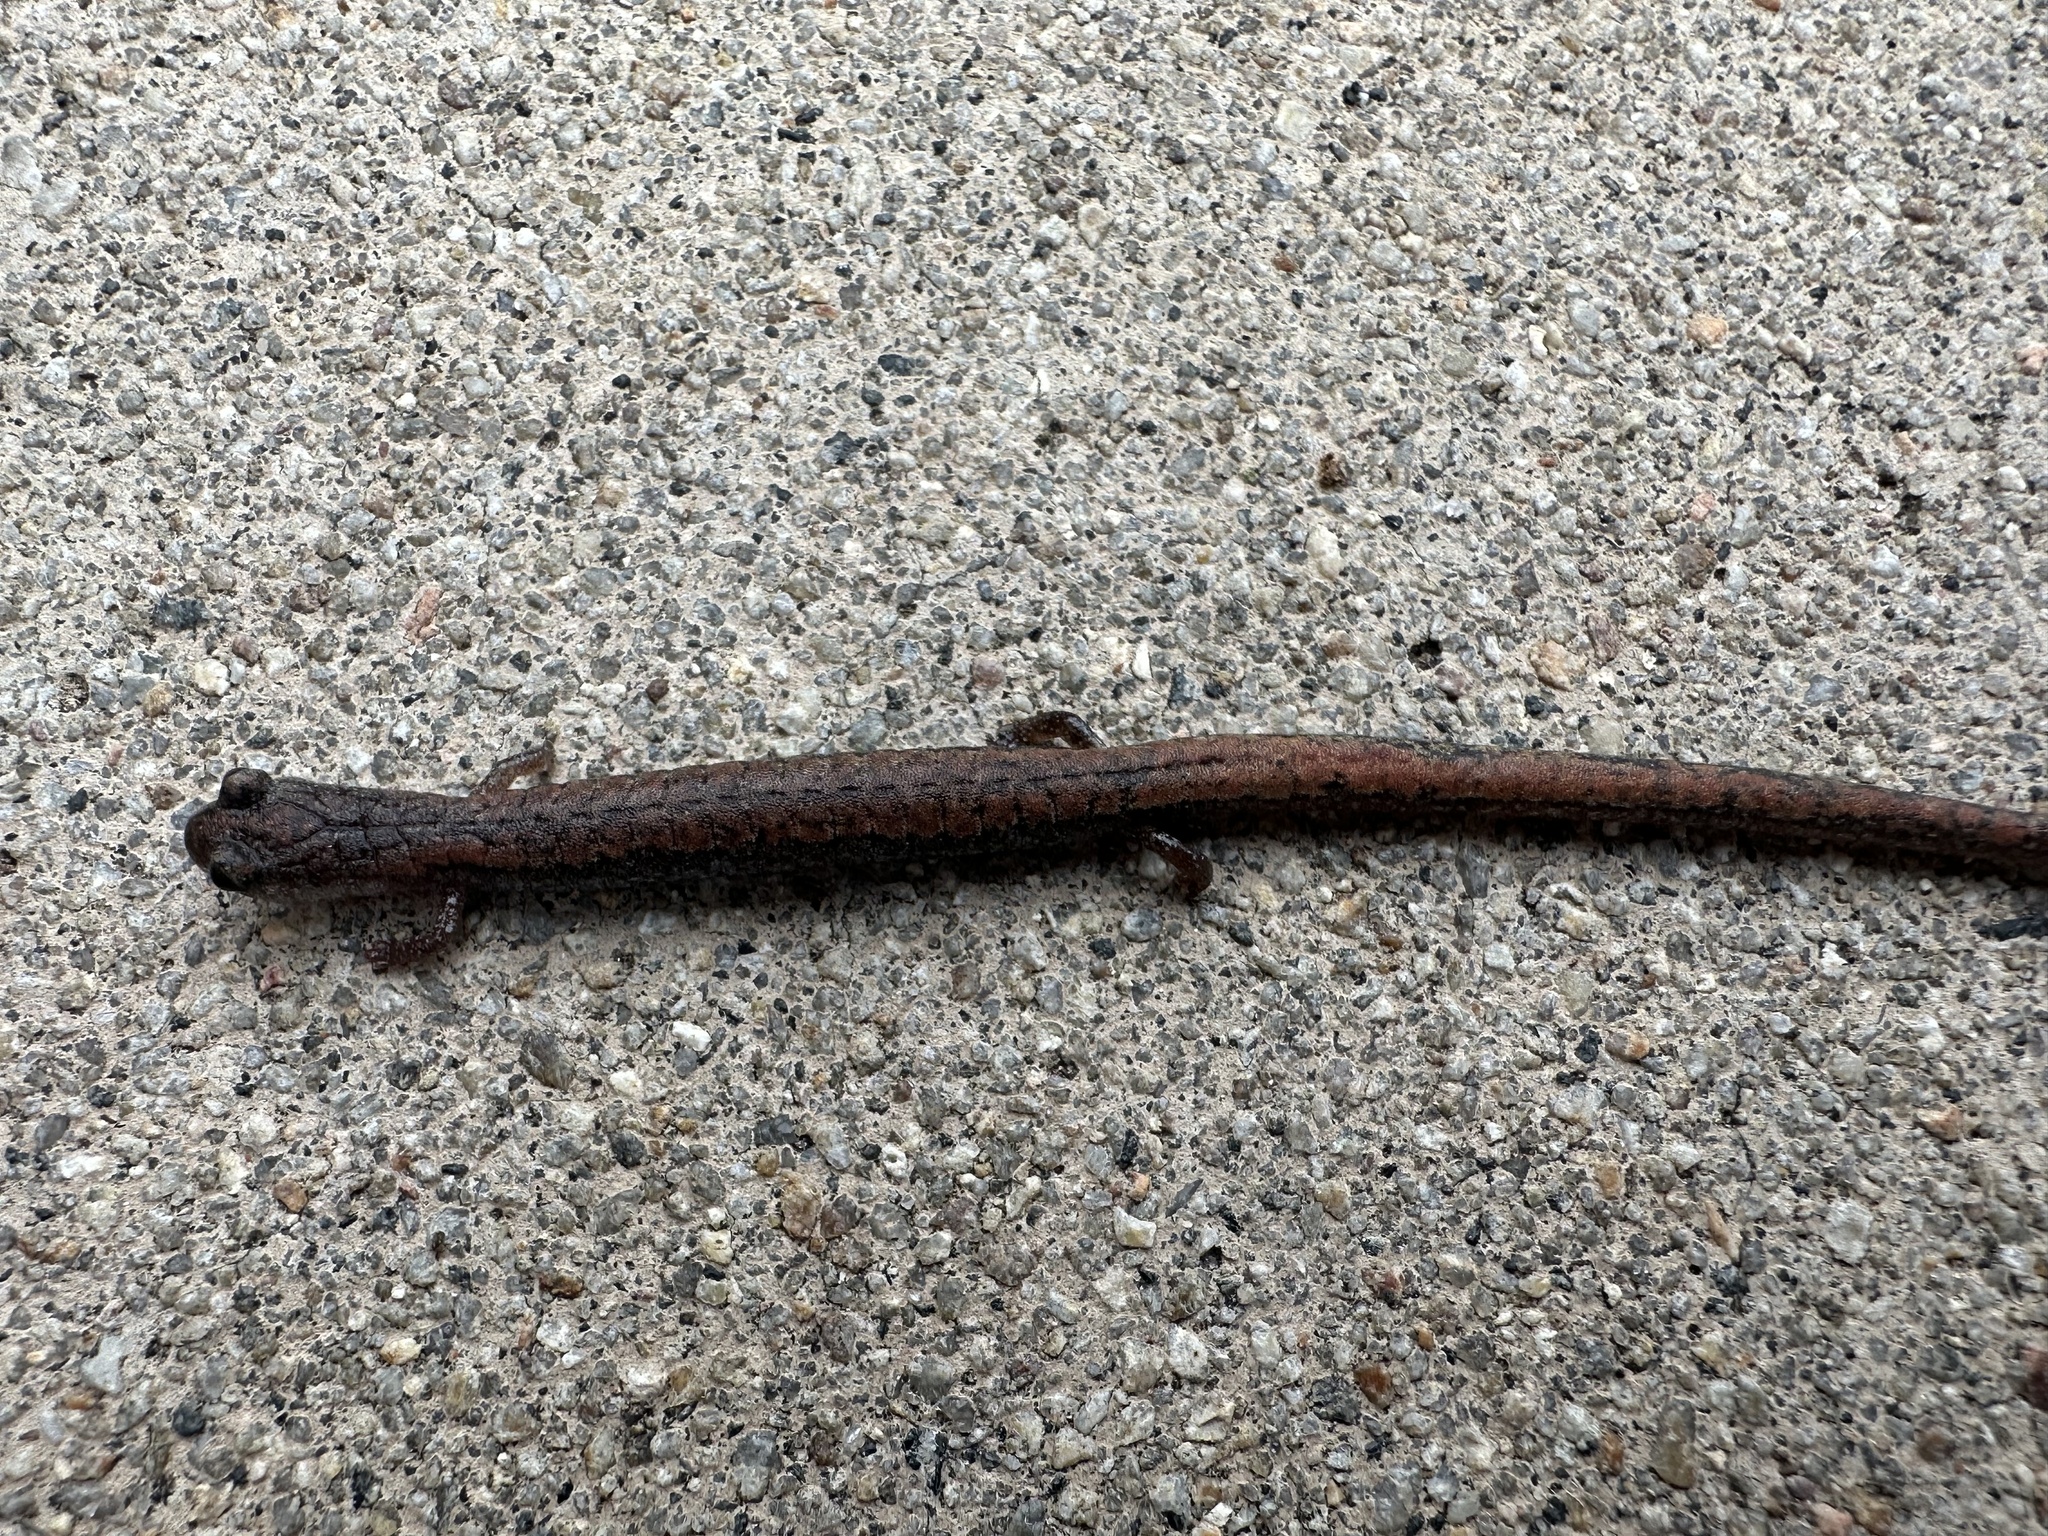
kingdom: Animalia
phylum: Chordata
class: Amphibia
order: Caudata
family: Plethodontidae
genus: Batrachoseps
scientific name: Batrachoseps major
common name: Garden slender salamander
